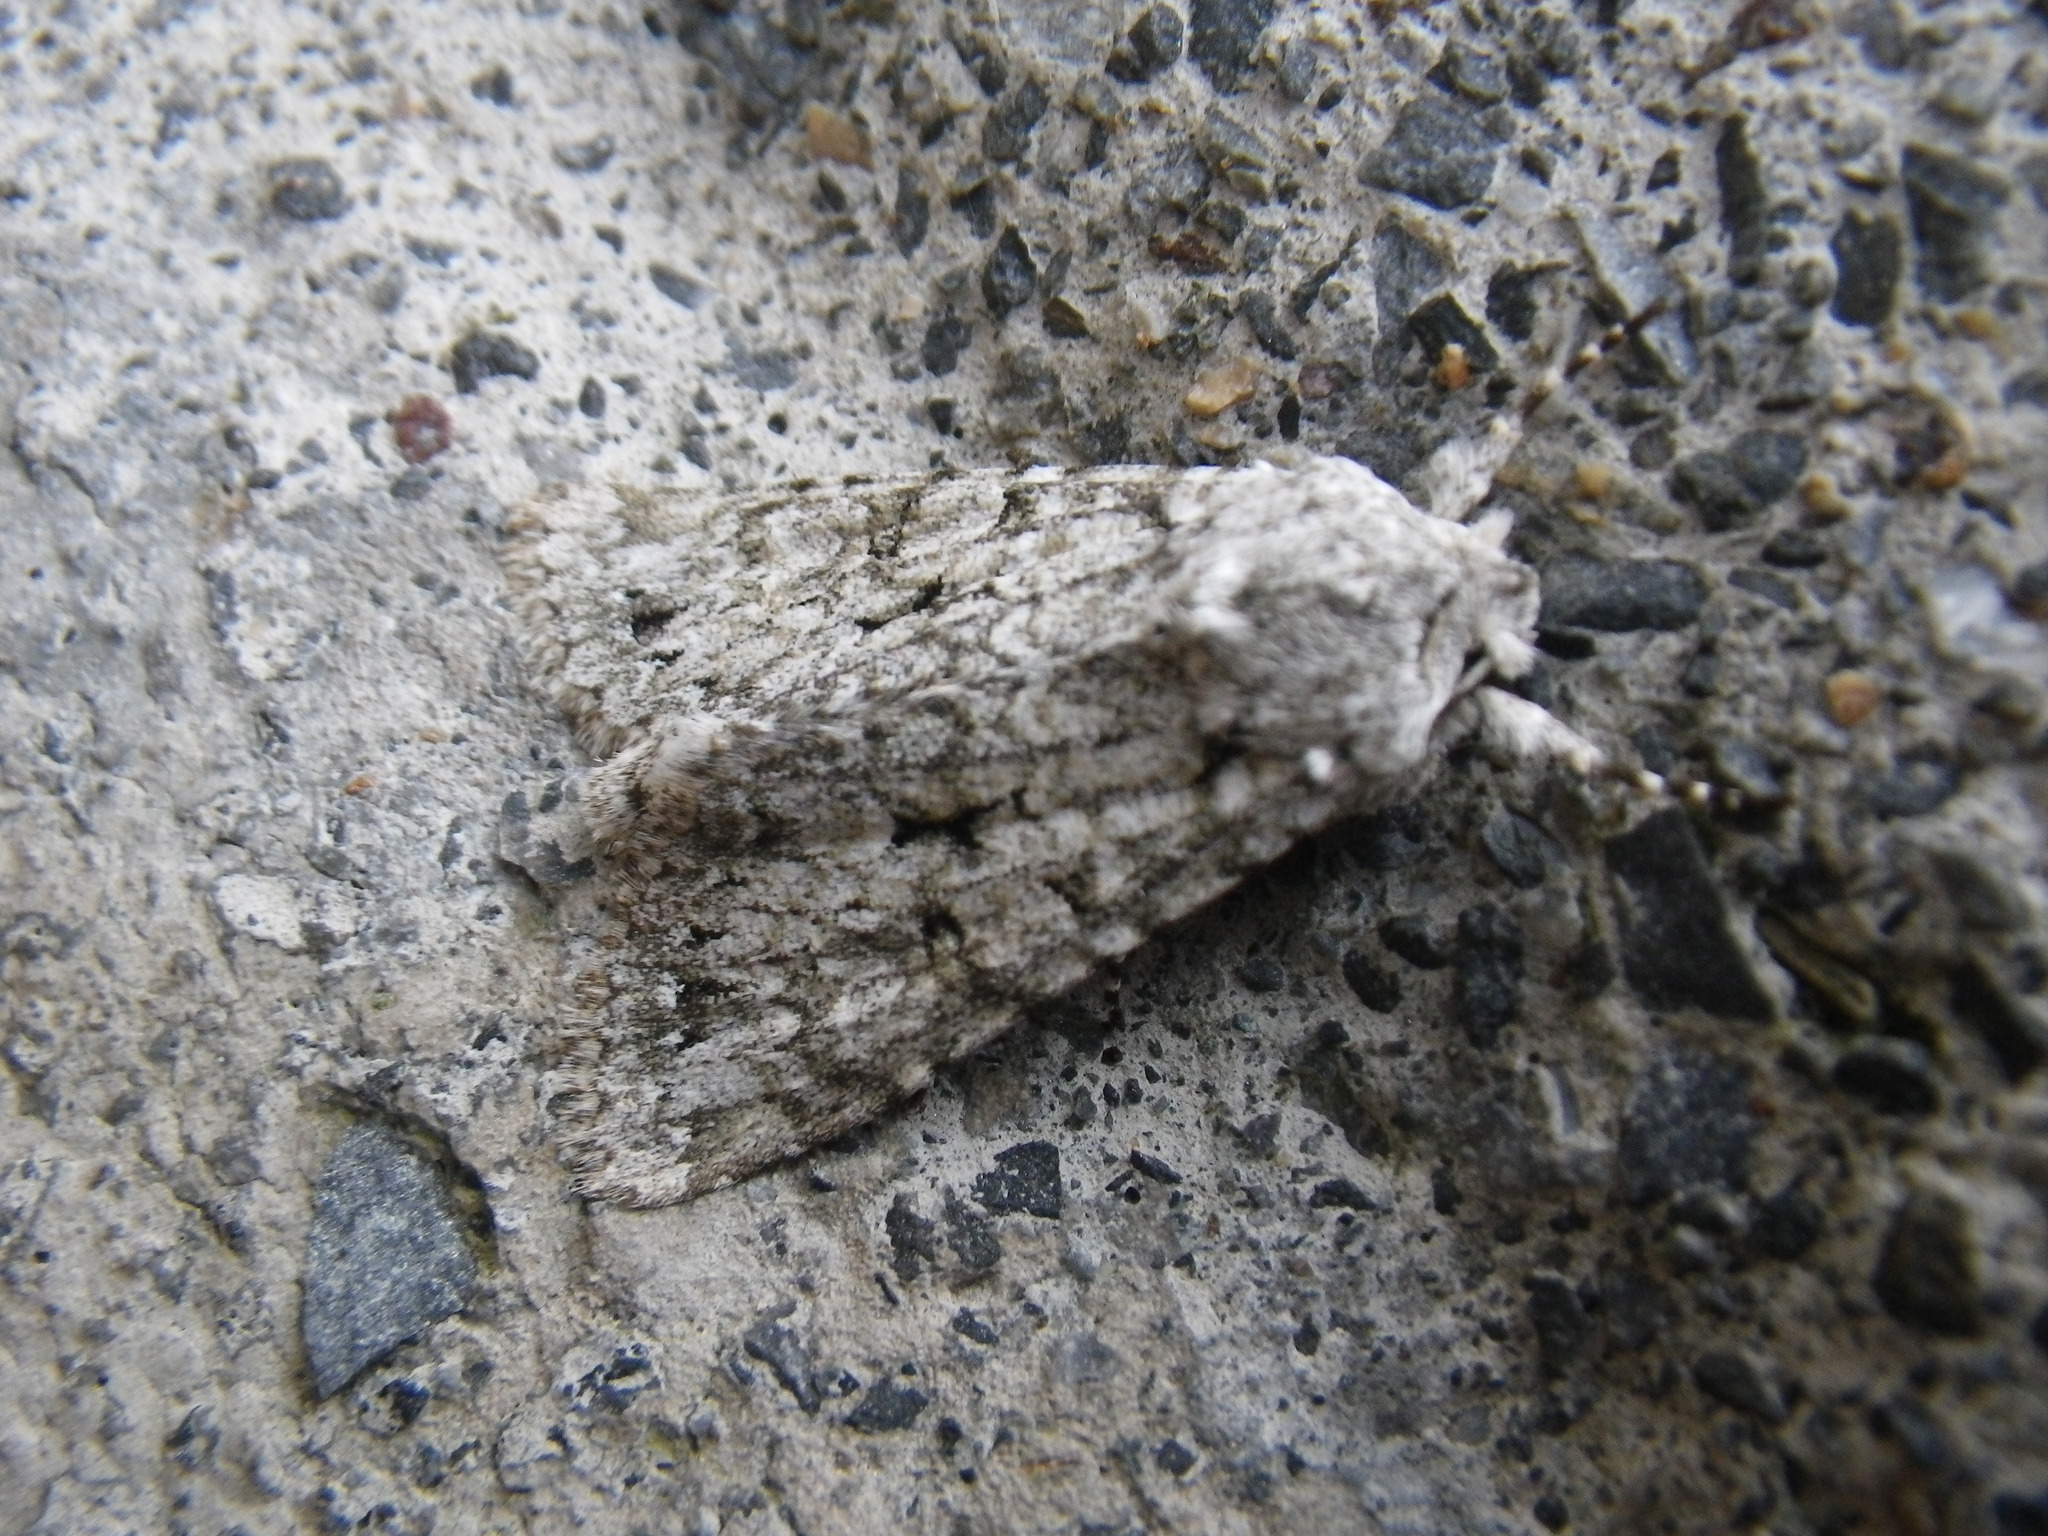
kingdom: Animalia
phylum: Arthropoda
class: Insecta
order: Lepidoptera
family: Noctuidae
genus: Antitype
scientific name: Antitype chi
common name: Grey chi
